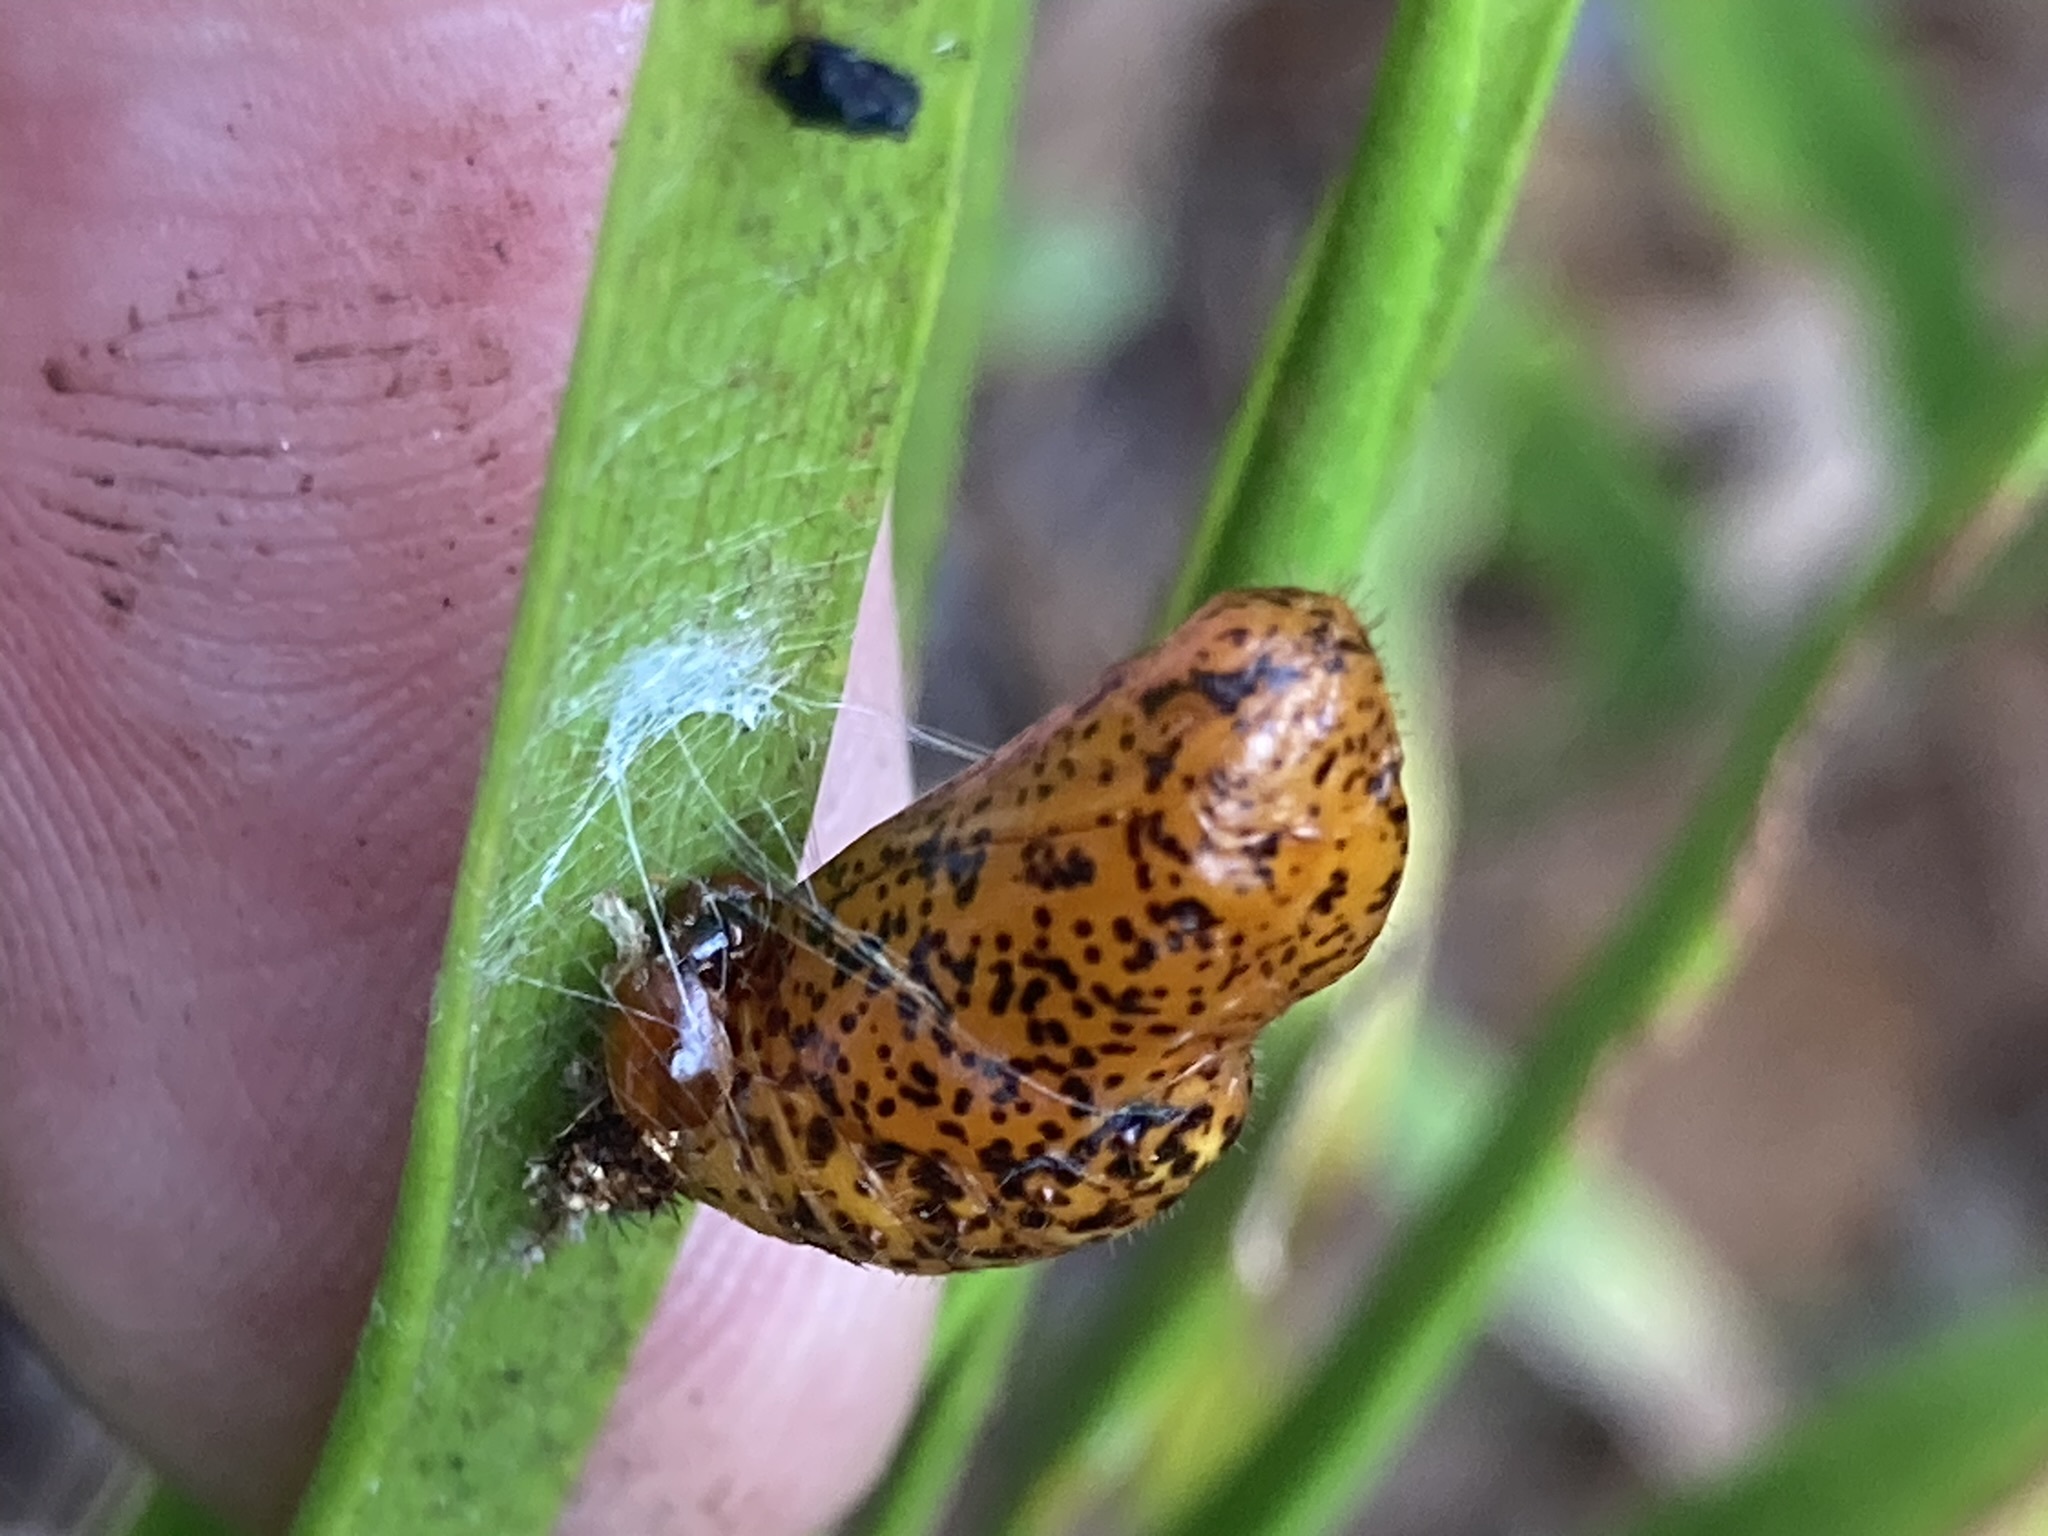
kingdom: Animalia
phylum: Arthropoda
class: Insecta
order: Lepidoptera
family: Lycaenidae
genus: Eumaeus
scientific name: Eumaeus atala
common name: Atala
